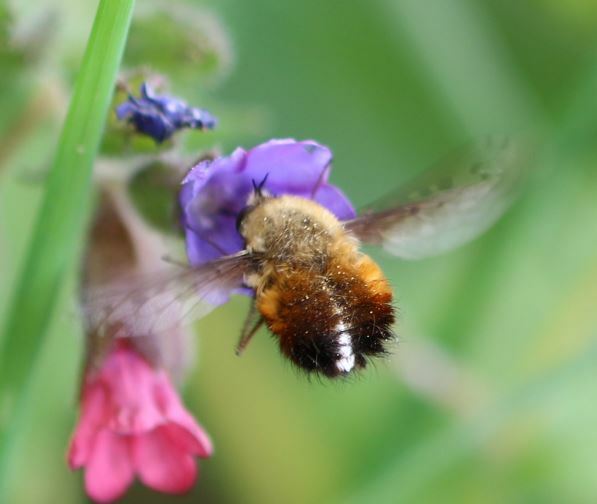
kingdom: Animalia
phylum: Arthropoda
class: Insecta
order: Diptera
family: Bombyliidae
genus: Bombylius
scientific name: Bombylius discolor
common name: Dotted bee-fly
